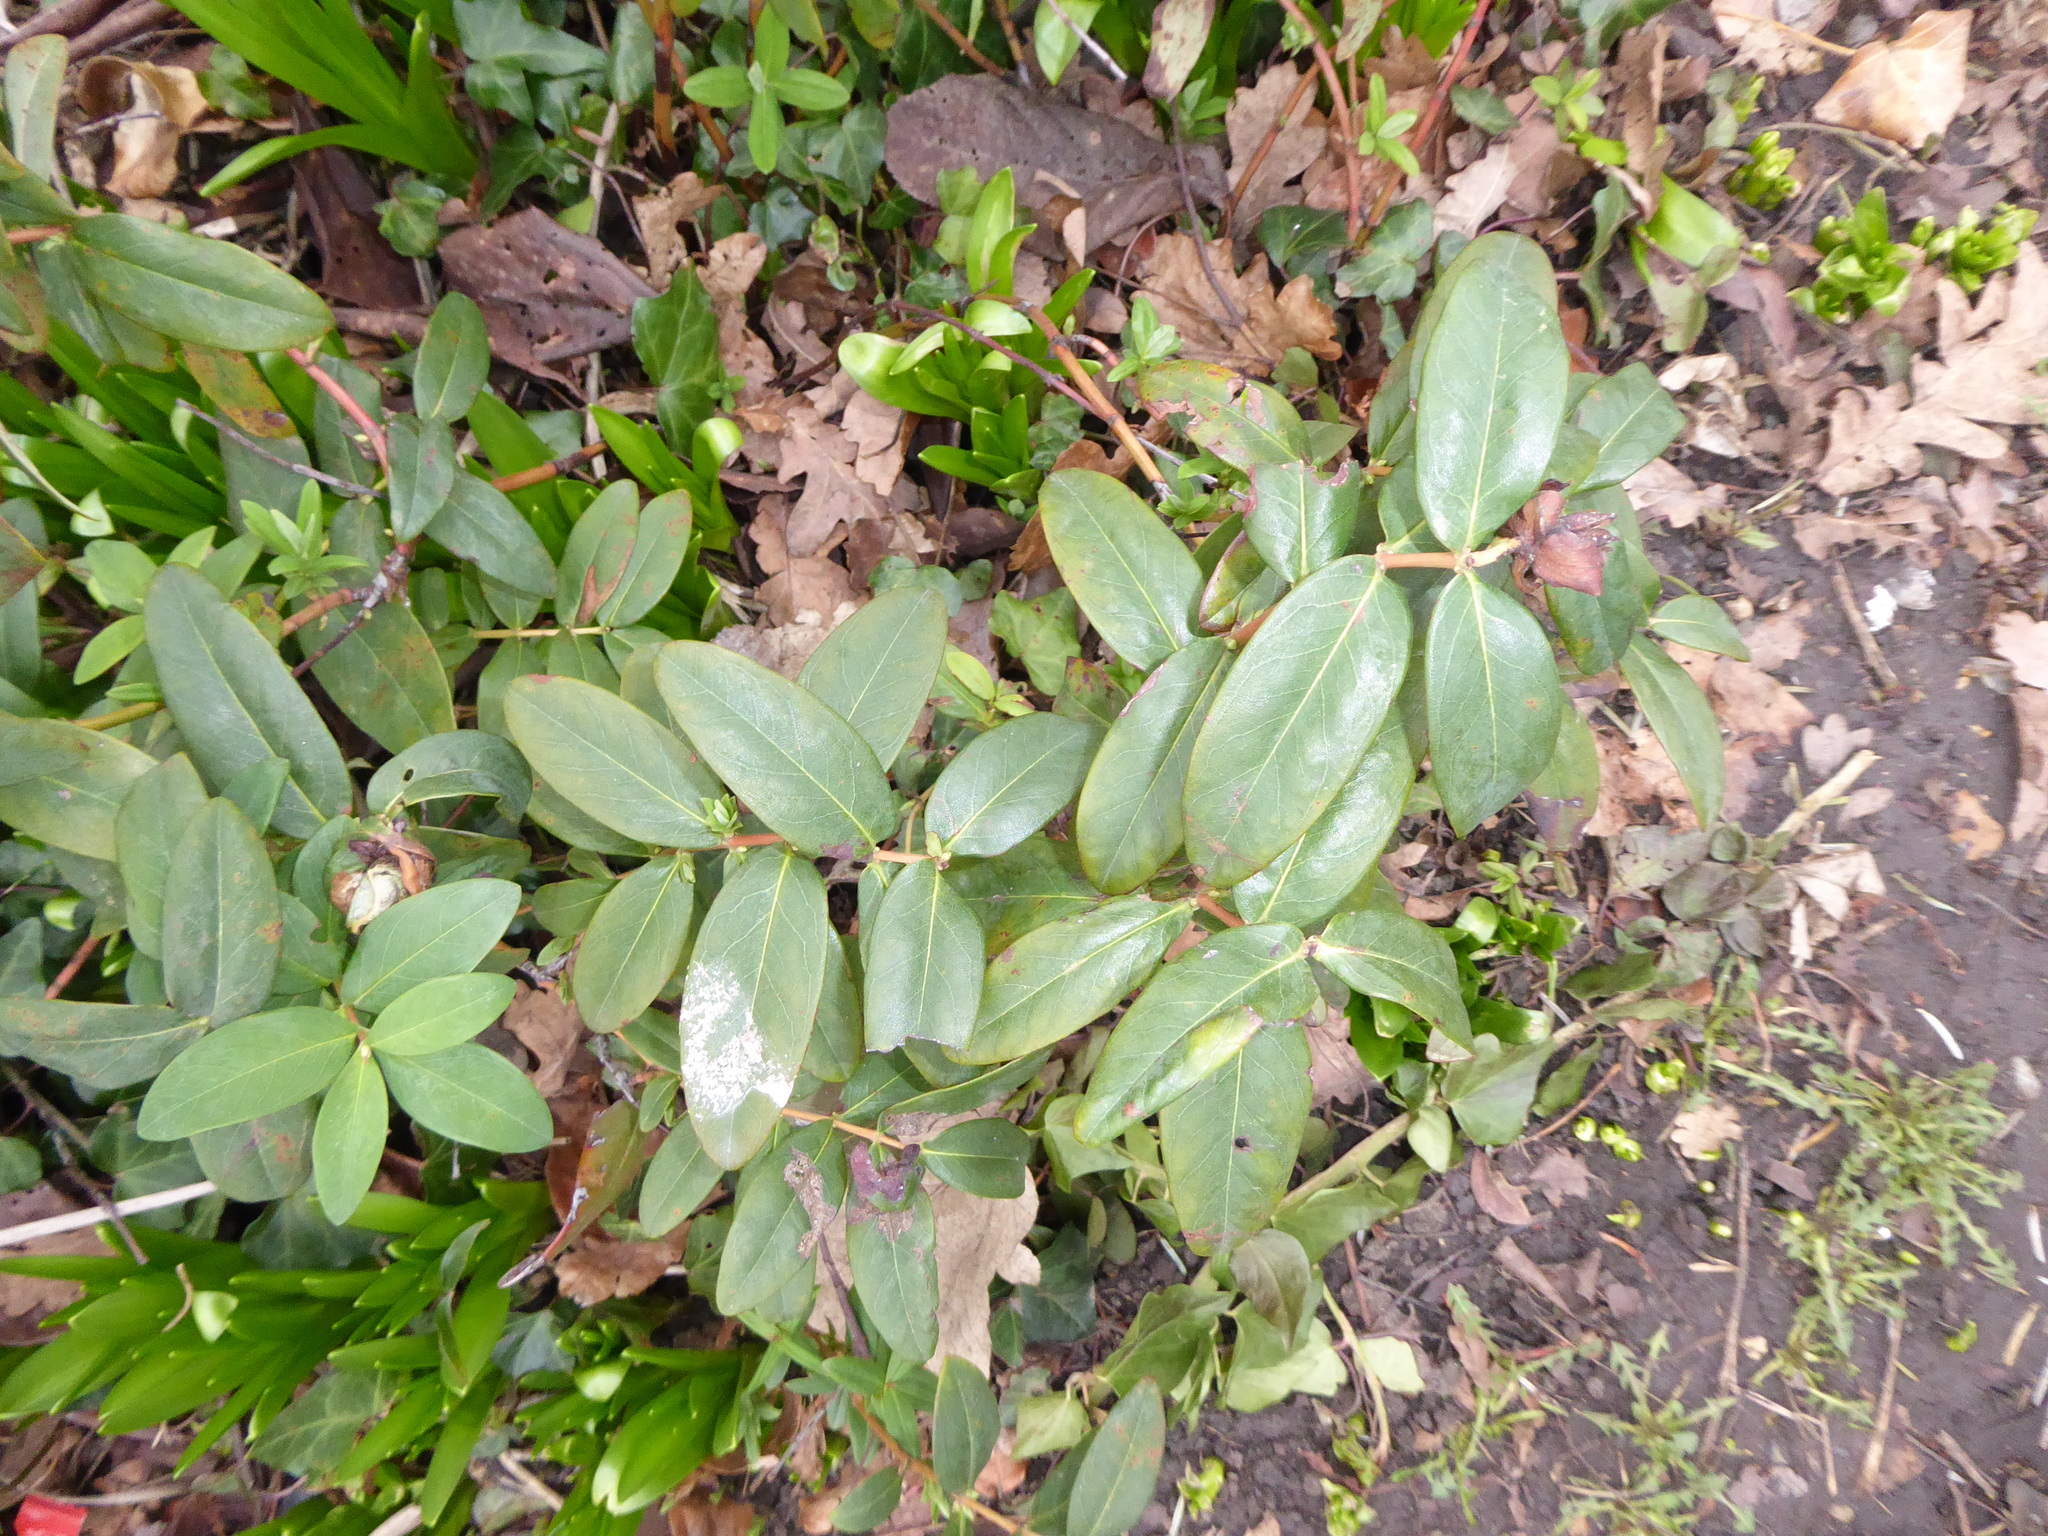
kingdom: Plantae
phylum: Tracheophyta
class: Magnoliopsida
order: Malpighiales
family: Hypericaceae
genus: Hypericum
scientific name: Hypericum calycinum
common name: Rose-of-sharon
